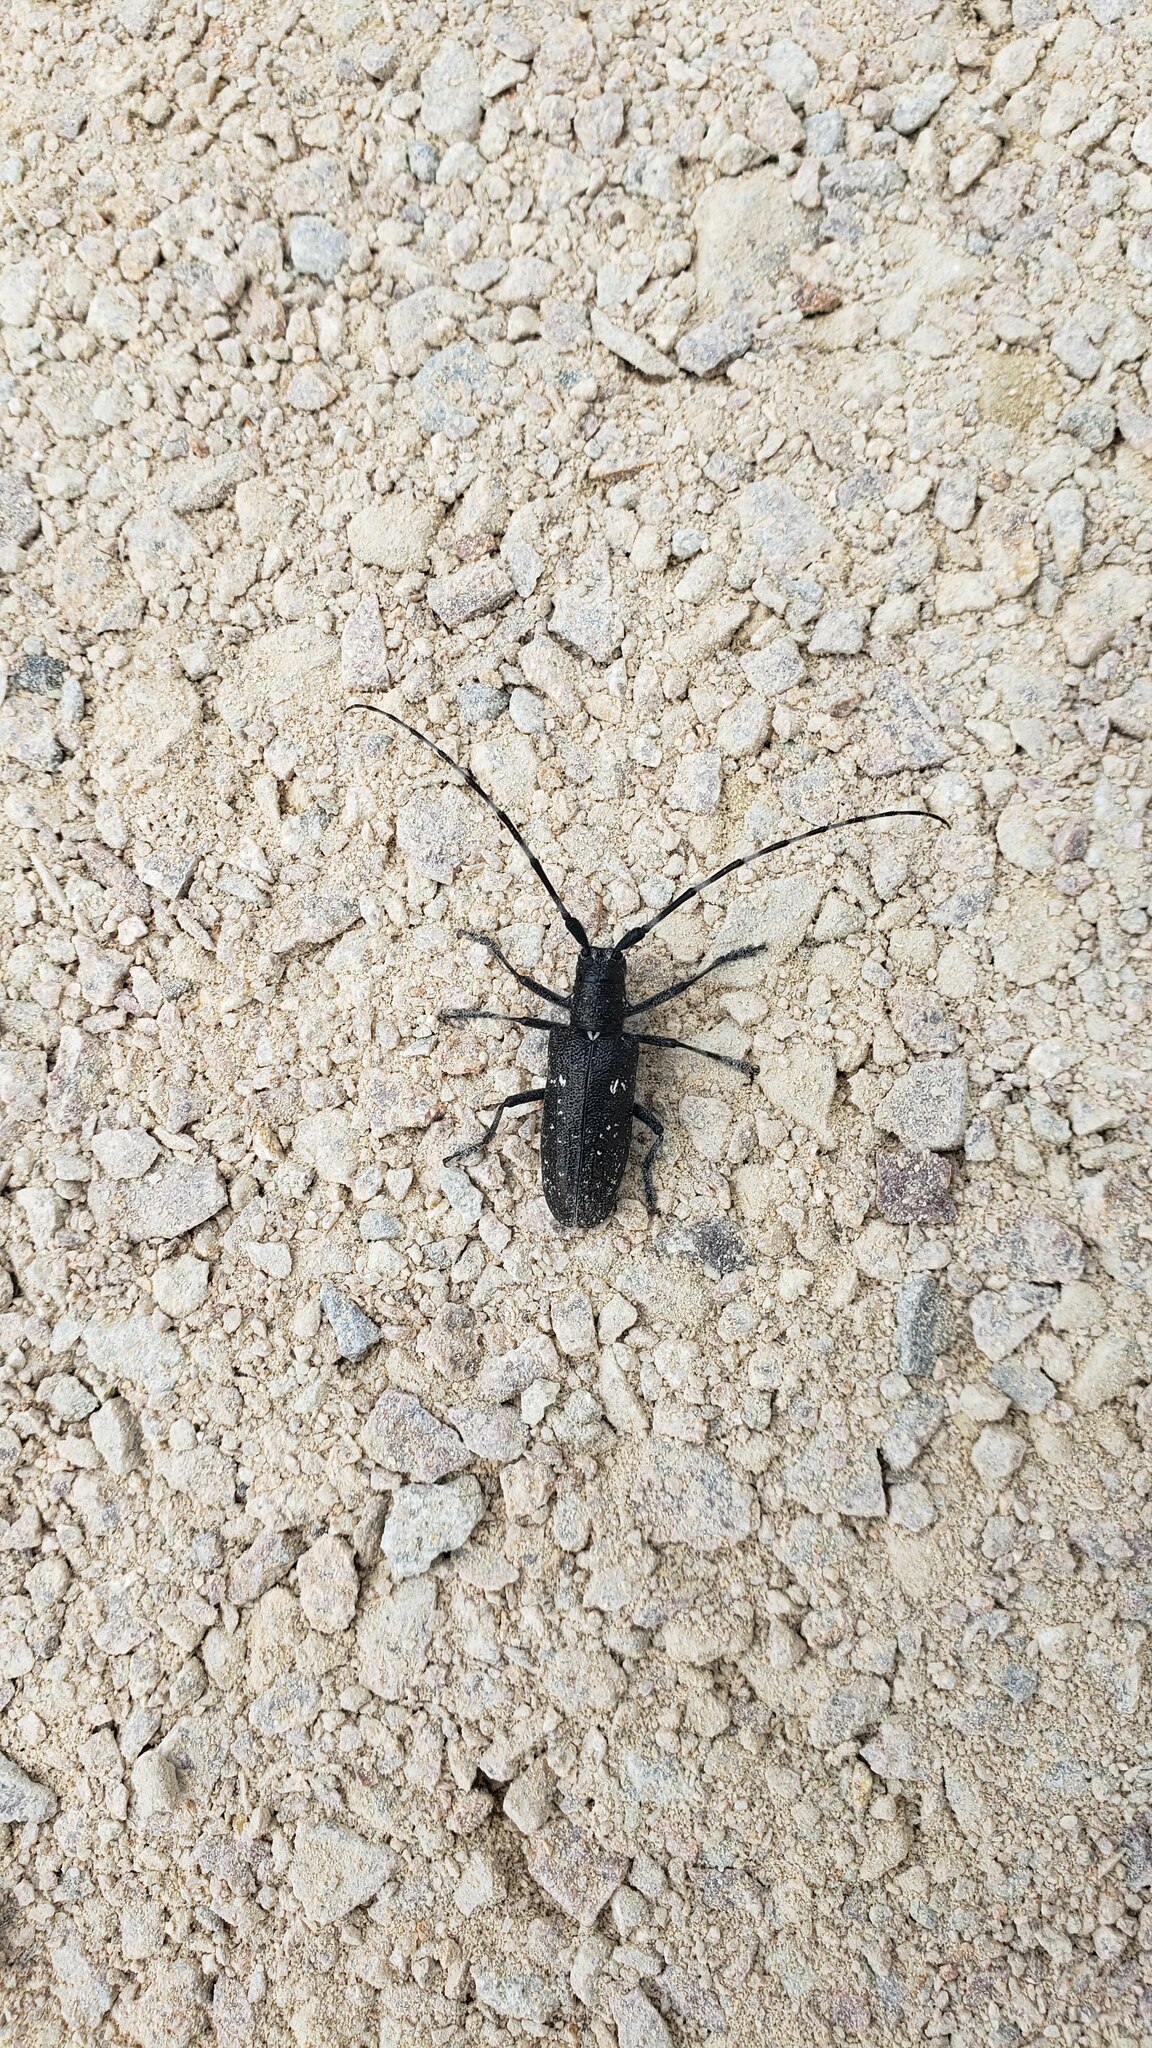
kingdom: Animalia
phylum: Arthropoda
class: Insecta
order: Coleoptera
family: Cerambycidae
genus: Monochamus
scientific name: Monochamus scutellatus
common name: White-spotted sawyer beetle
